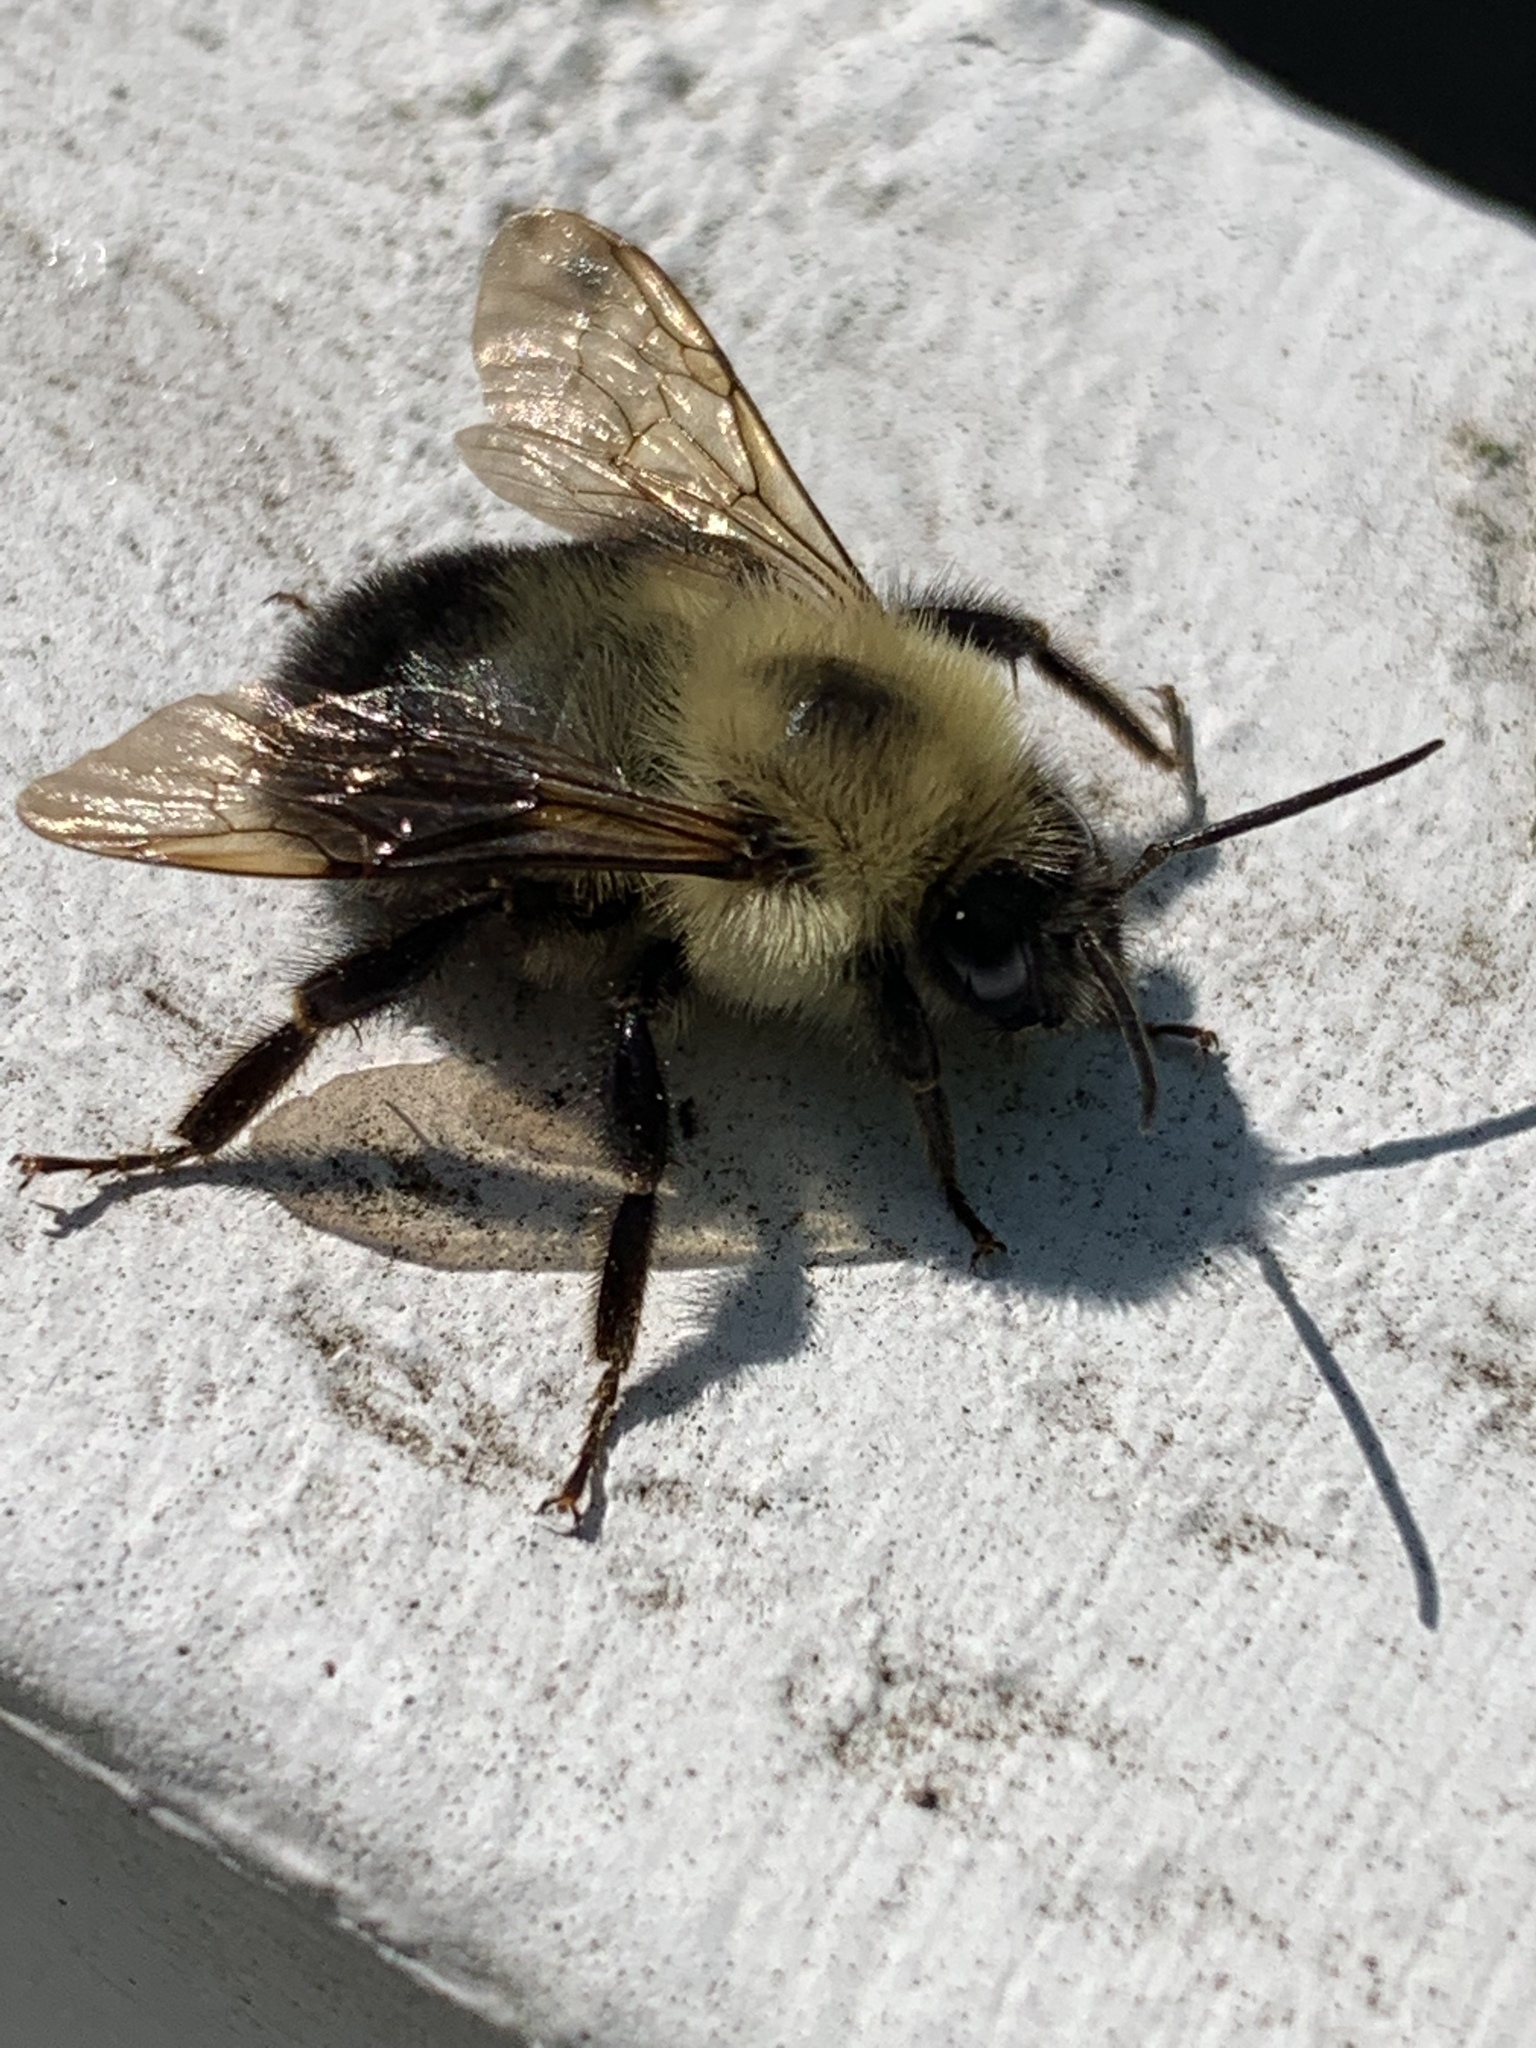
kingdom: Animalia
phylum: Arthropoda
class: Insecta
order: Hymenoptera
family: Apidae
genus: Bombus
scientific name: Bombus bimaculatus
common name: Two-spotted bumble bee
